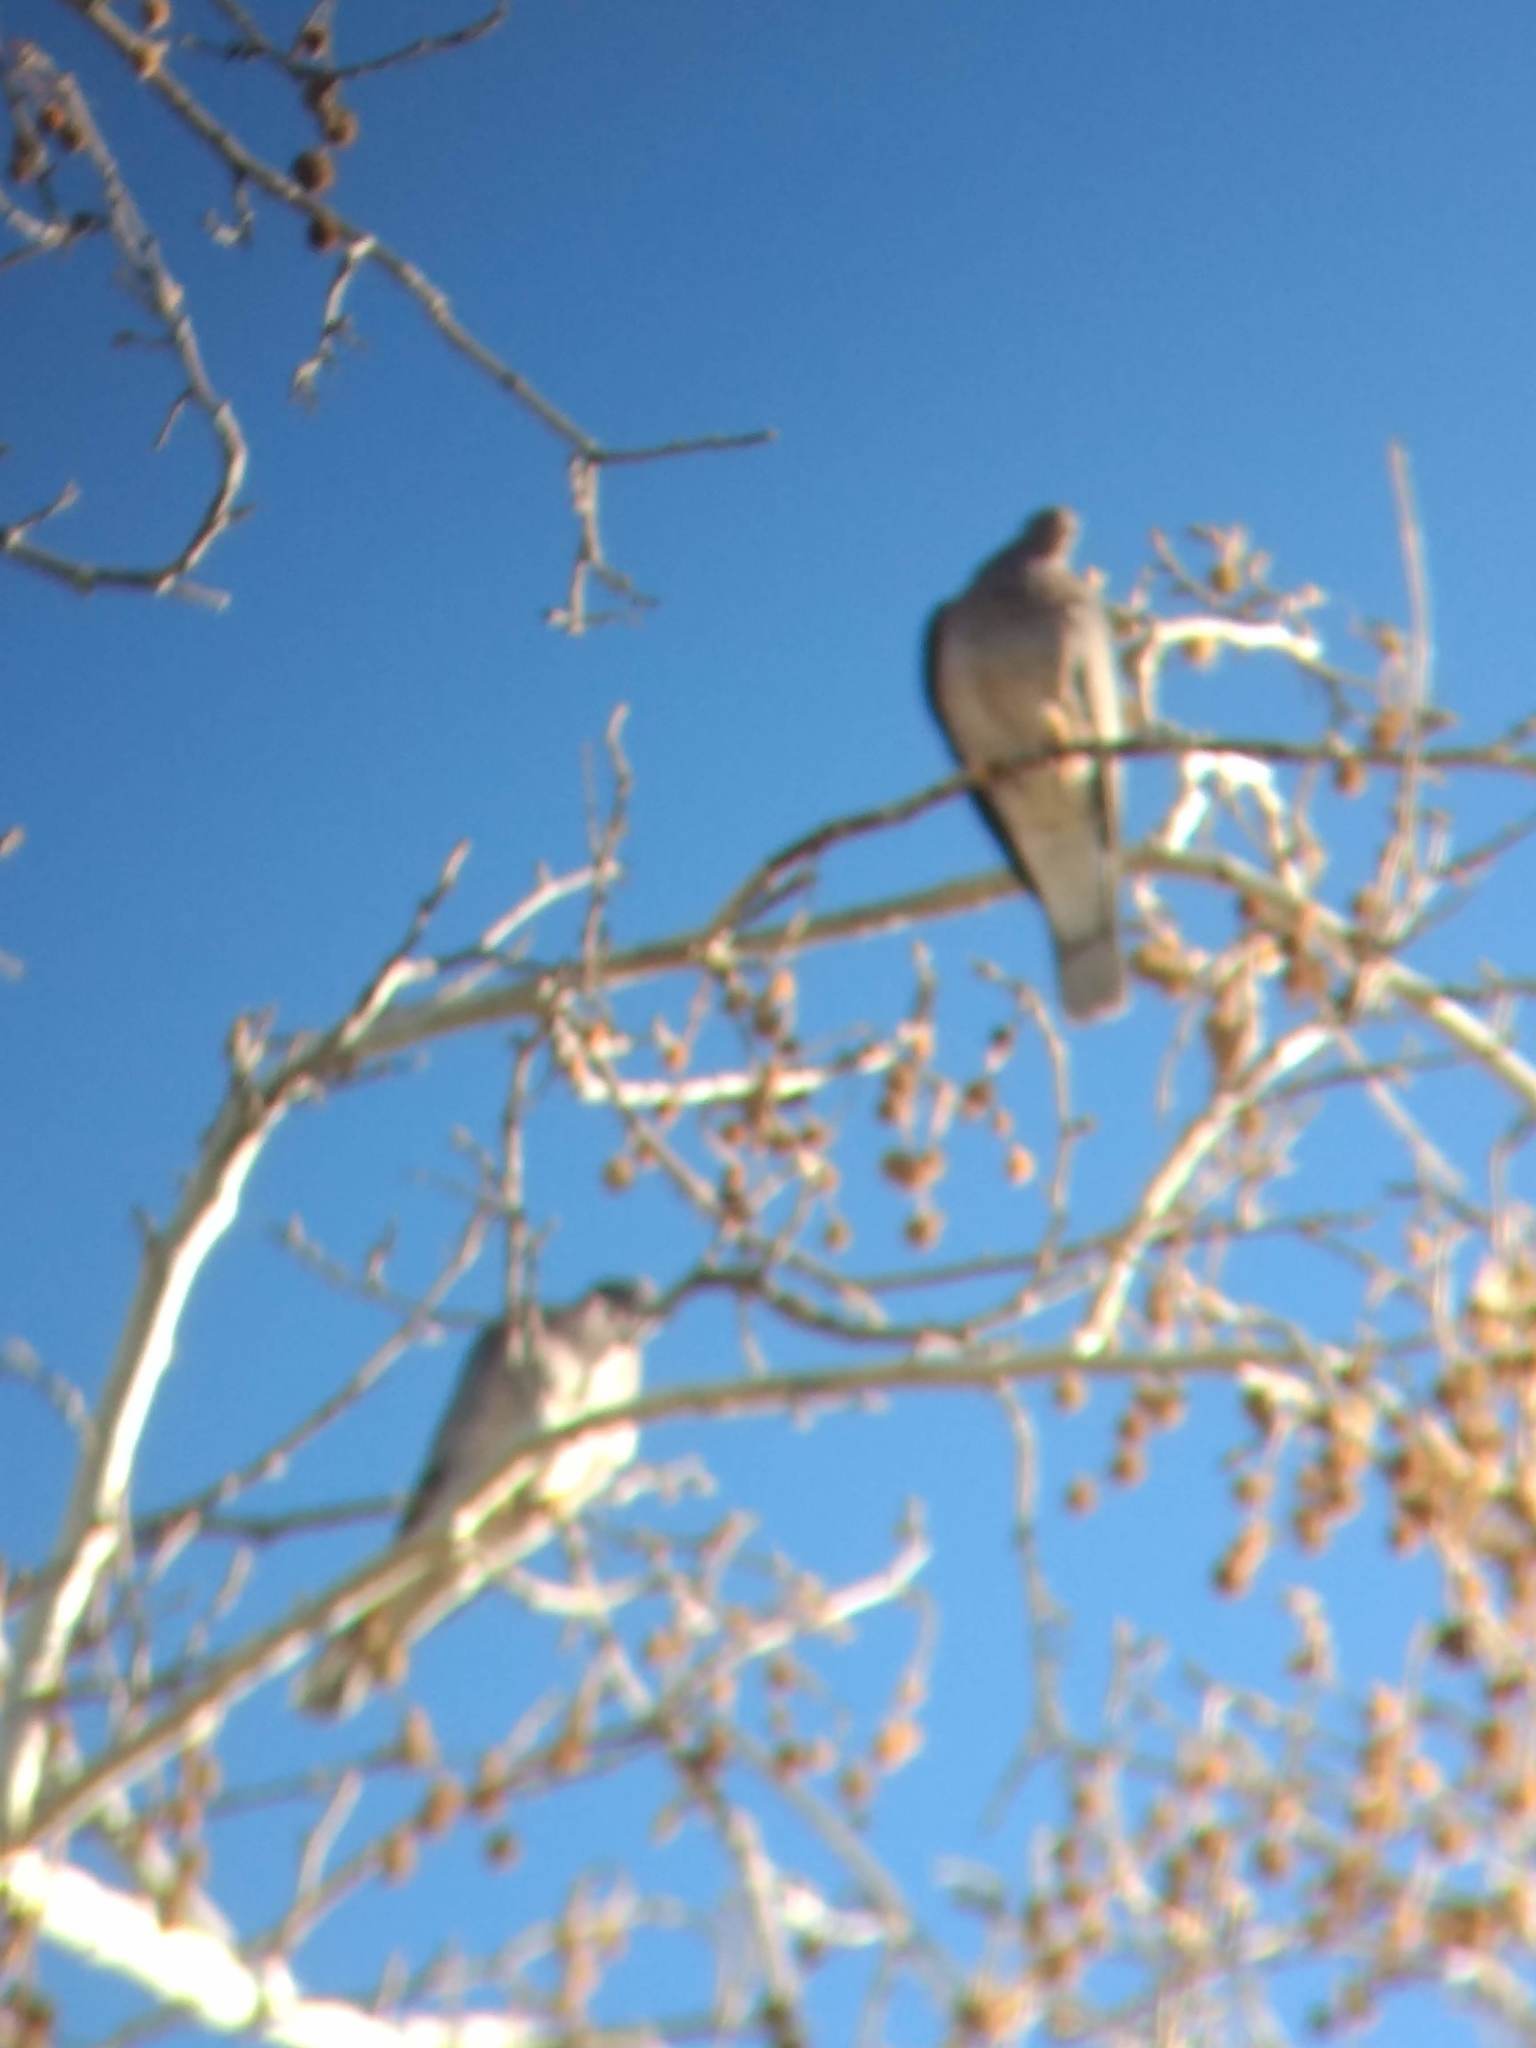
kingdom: Animalia
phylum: Chordata
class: Aves
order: Columbiformes
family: Columbidae
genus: Patagioenas
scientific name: Patagioenas fasciata
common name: Band-tailed pigeon
